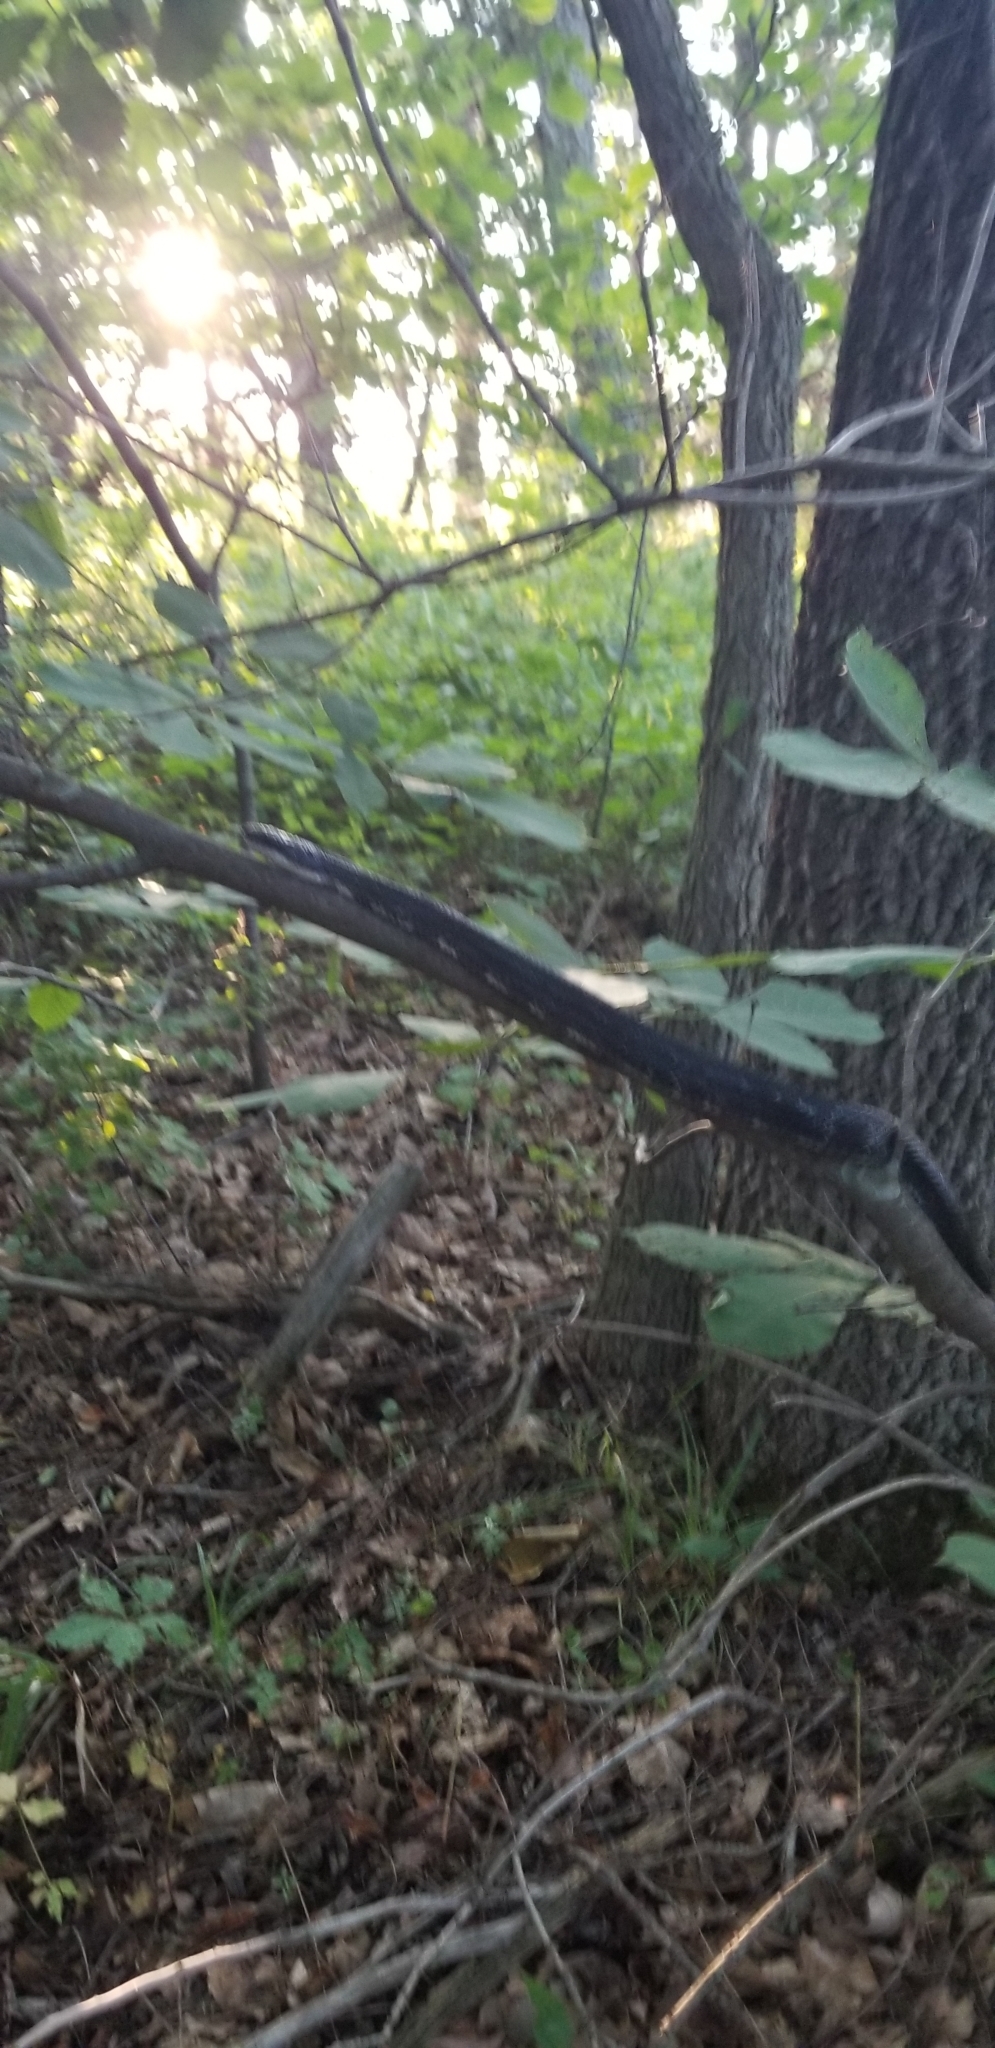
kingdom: Animalia
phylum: Chordata
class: Squamata
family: Colubridae
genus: Pantherophis
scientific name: Pantherophis obsoletus
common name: Black rat snake
